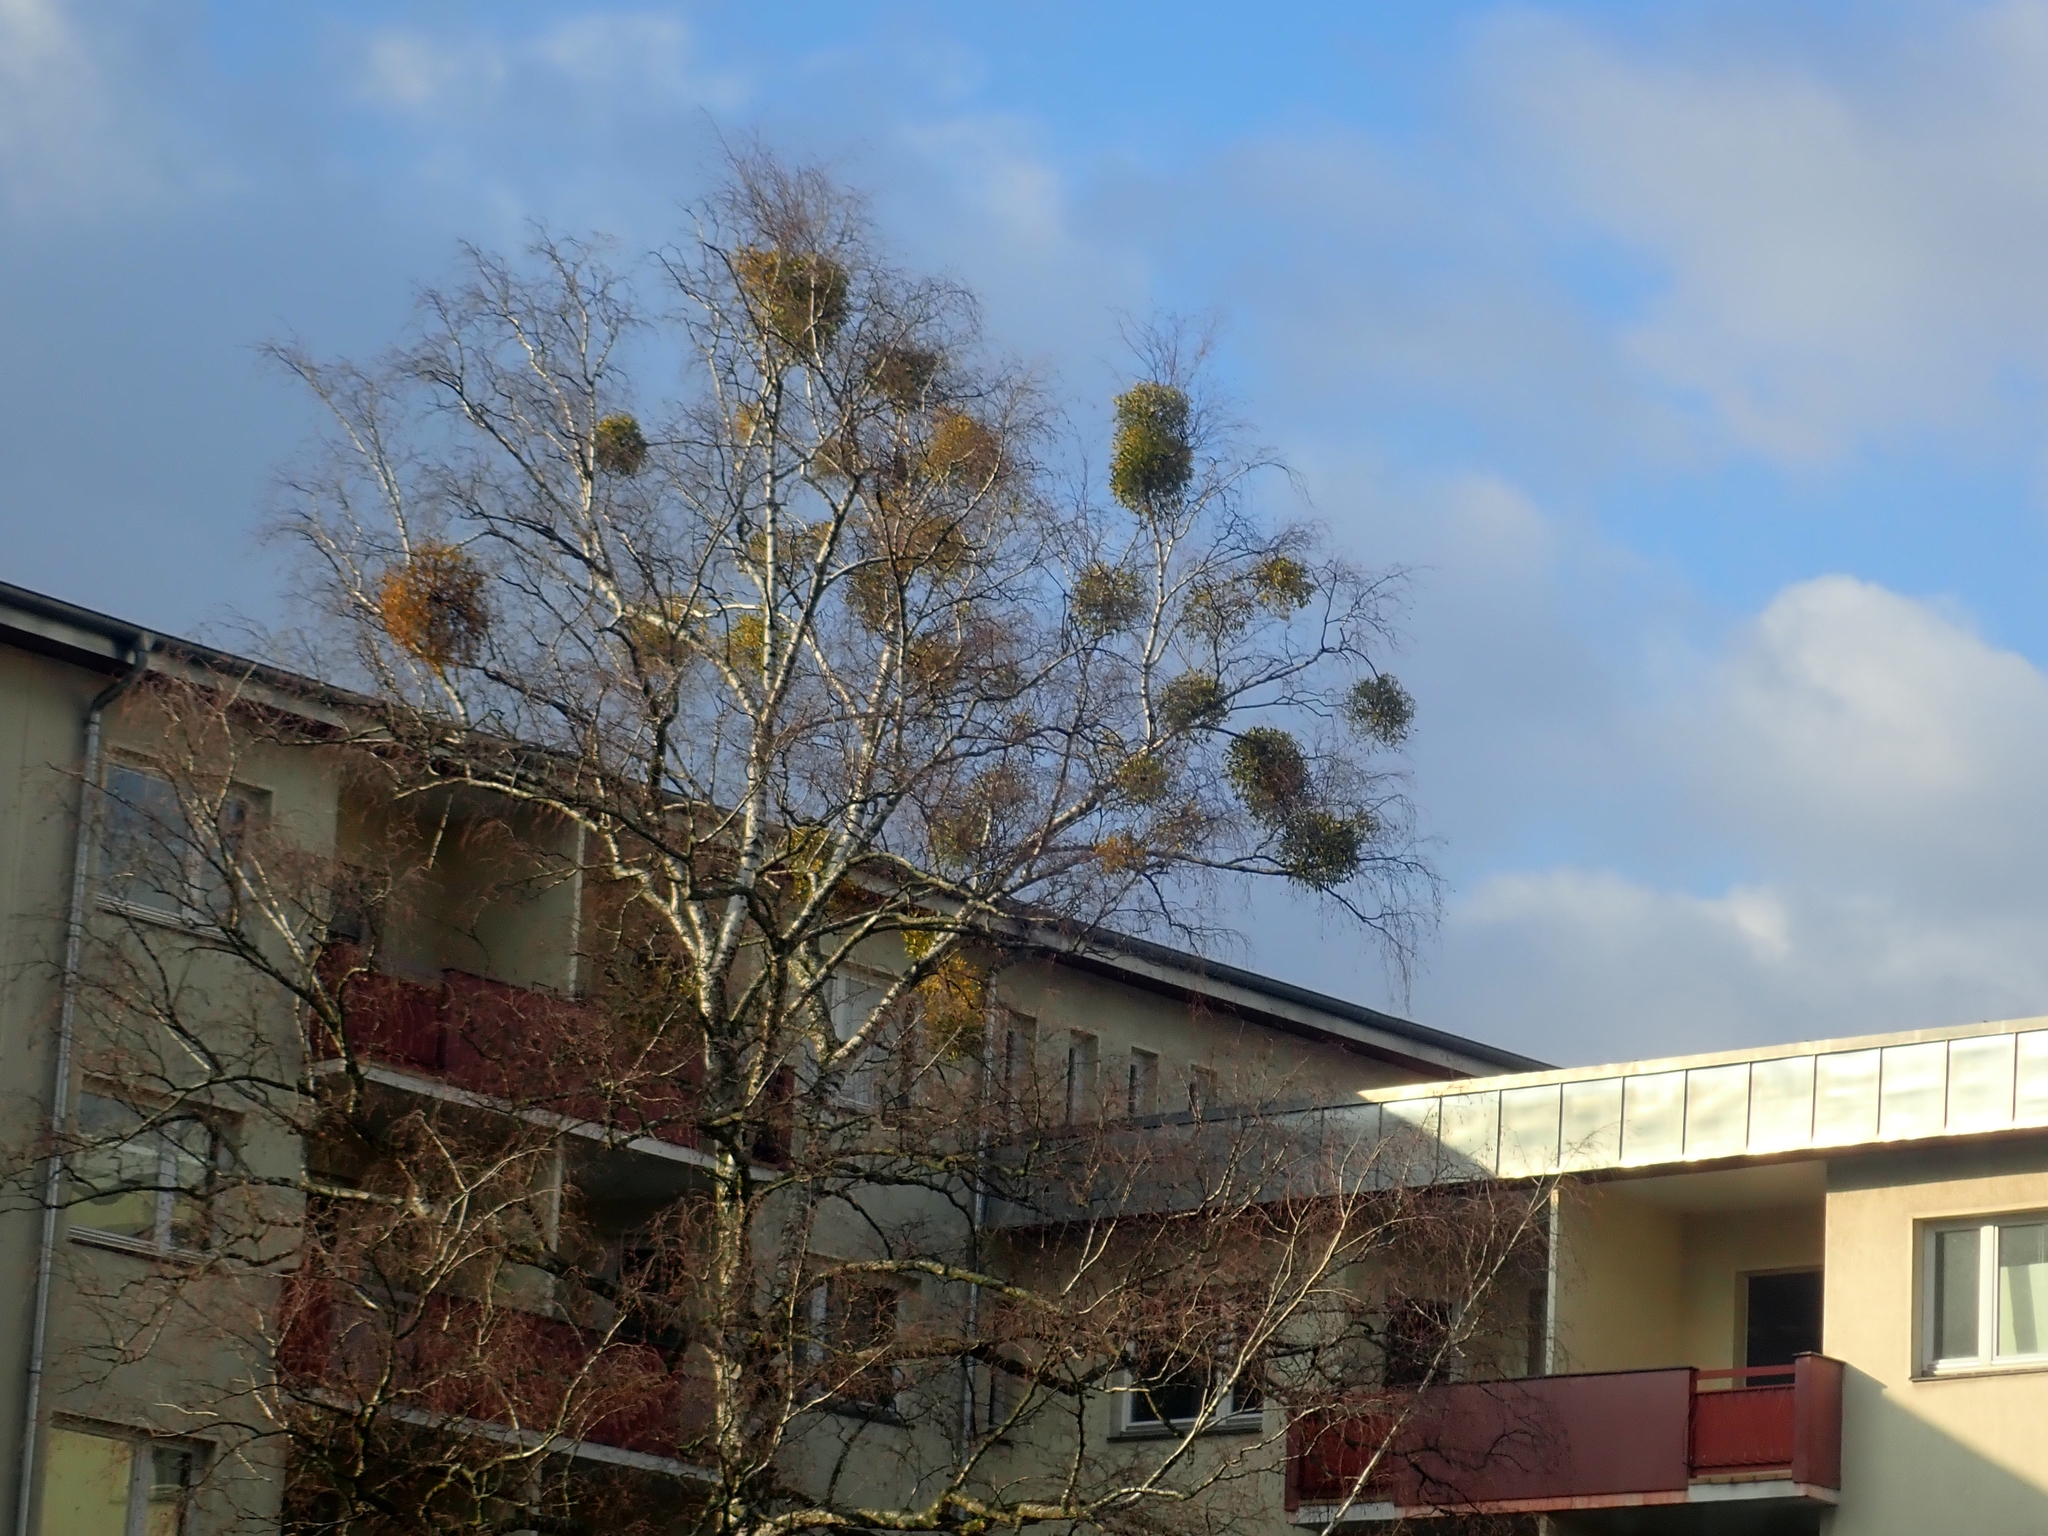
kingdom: Plantae
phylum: Tracheophyta
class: Magnoliopsida
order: Santalales
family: Viscaceae
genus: Viscum
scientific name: Viscum album
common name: Mistletoe
